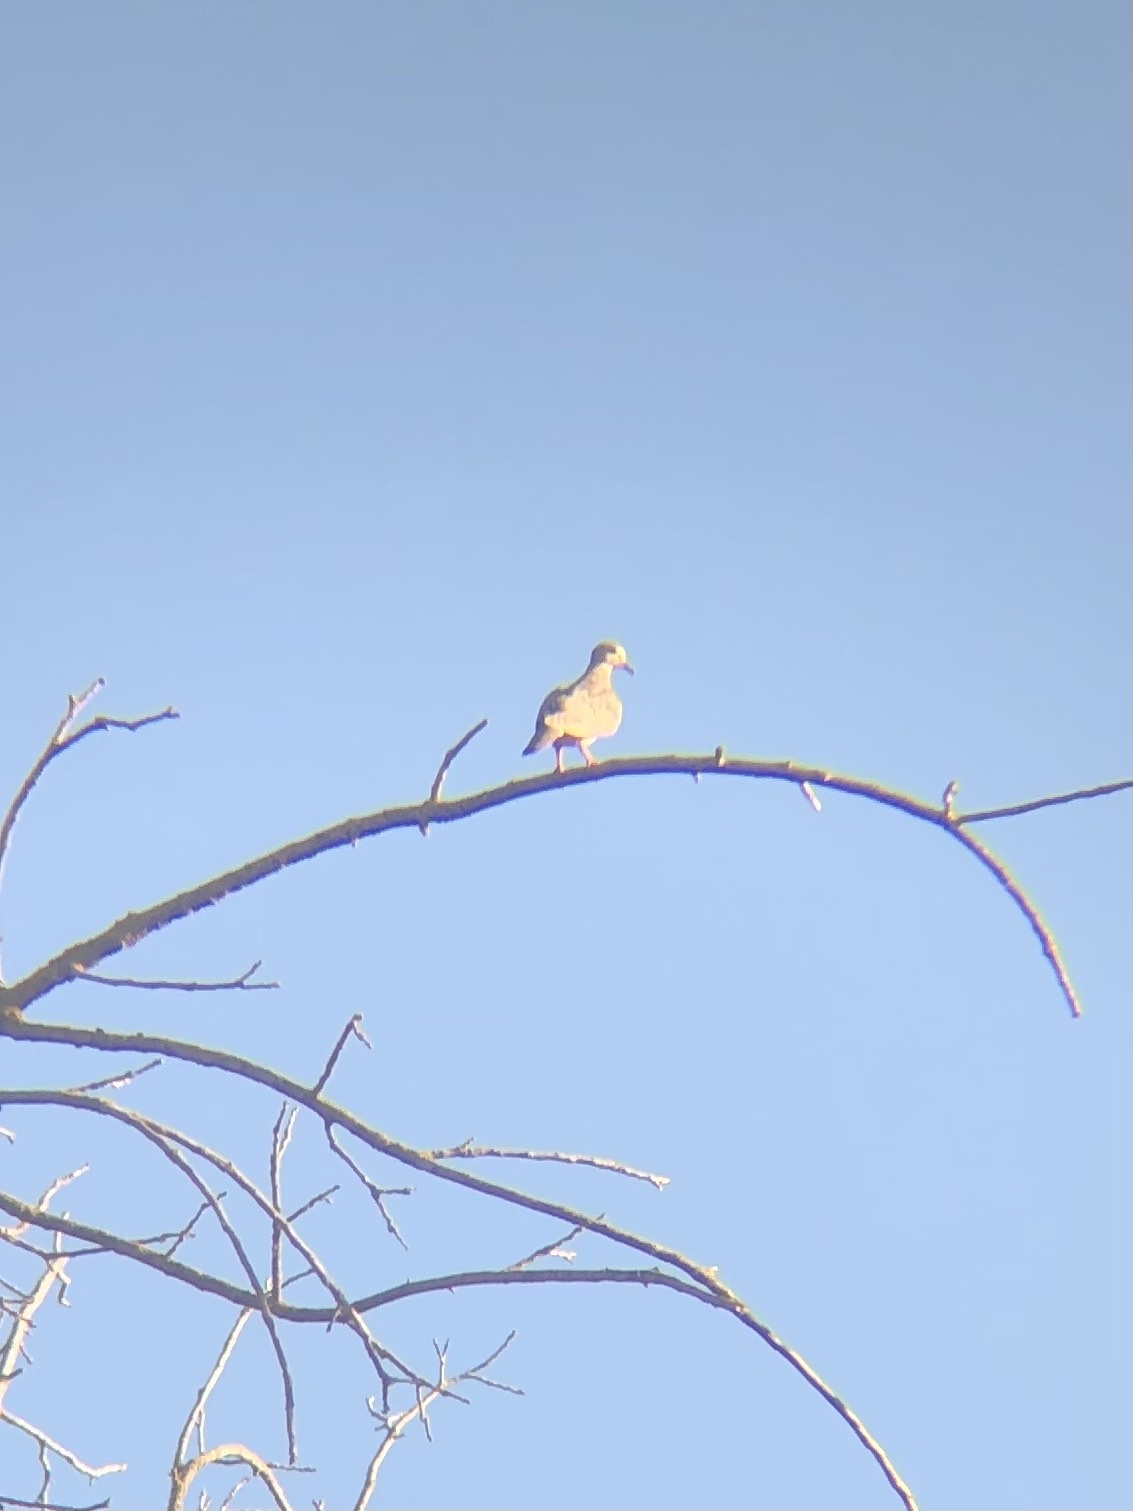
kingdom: Animalia
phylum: Chordata
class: Aves
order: Columbiformes
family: Columbidae
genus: Zenaida
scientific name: Zenaida macroura
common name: Mourning dove
